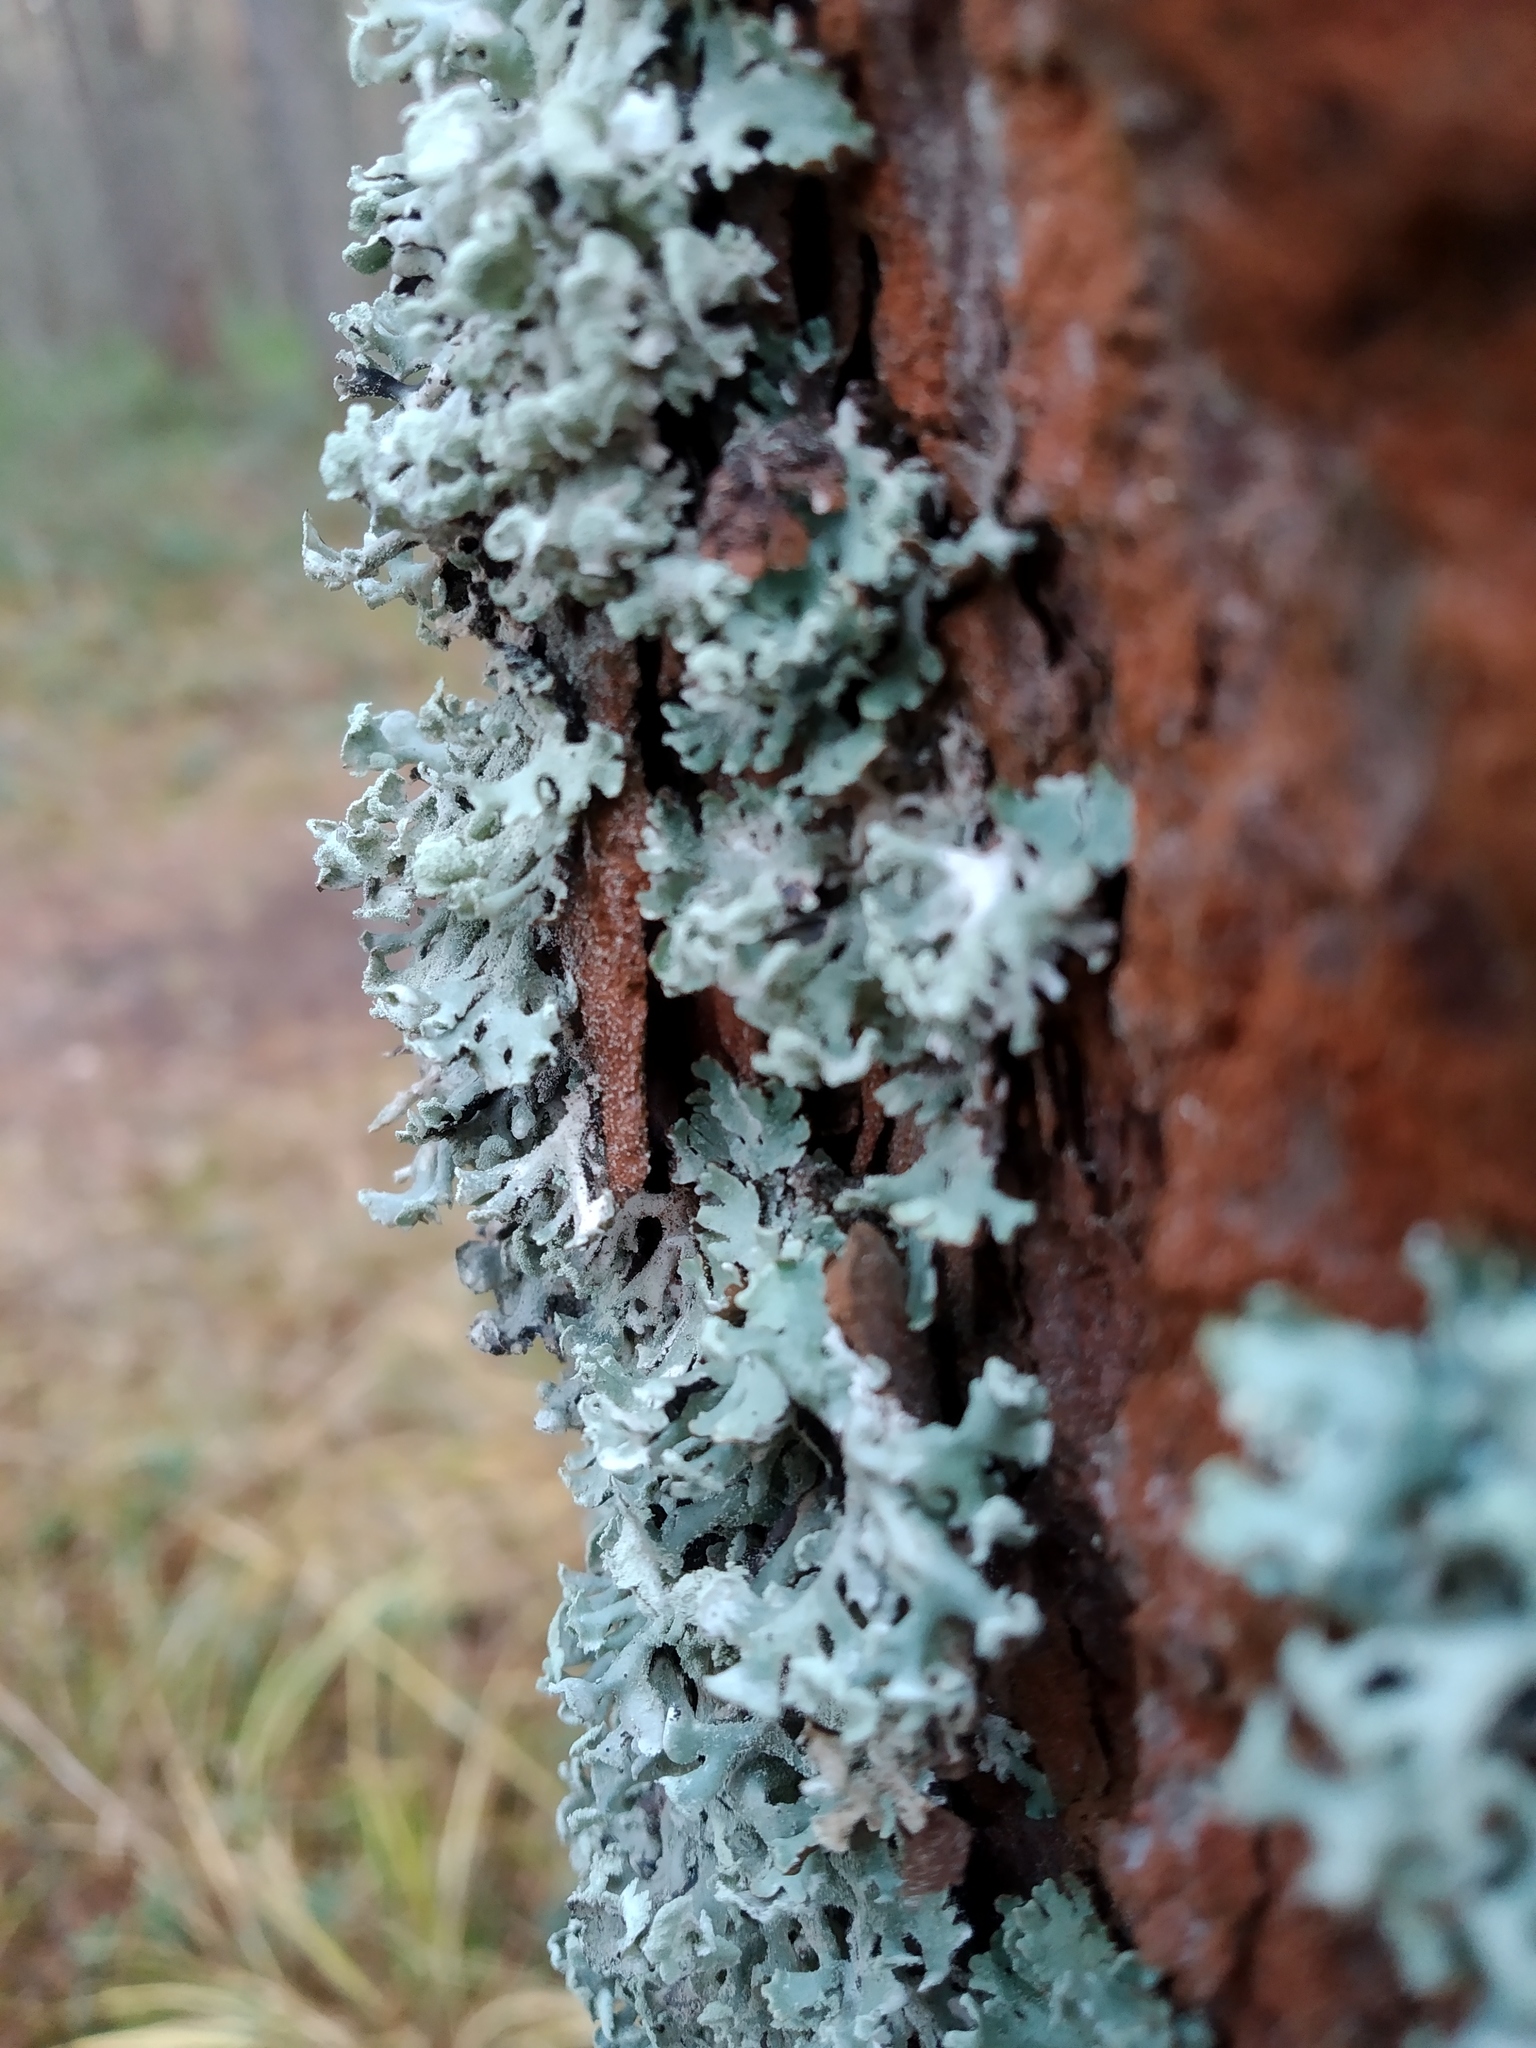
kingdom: Fungi
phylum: Ascomycota
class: Lecanoromycetes
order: Lecanorales
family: Parmeliaceae
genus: Hypogymnia
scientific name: Hypogymnia physodes
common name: Dark crottle
